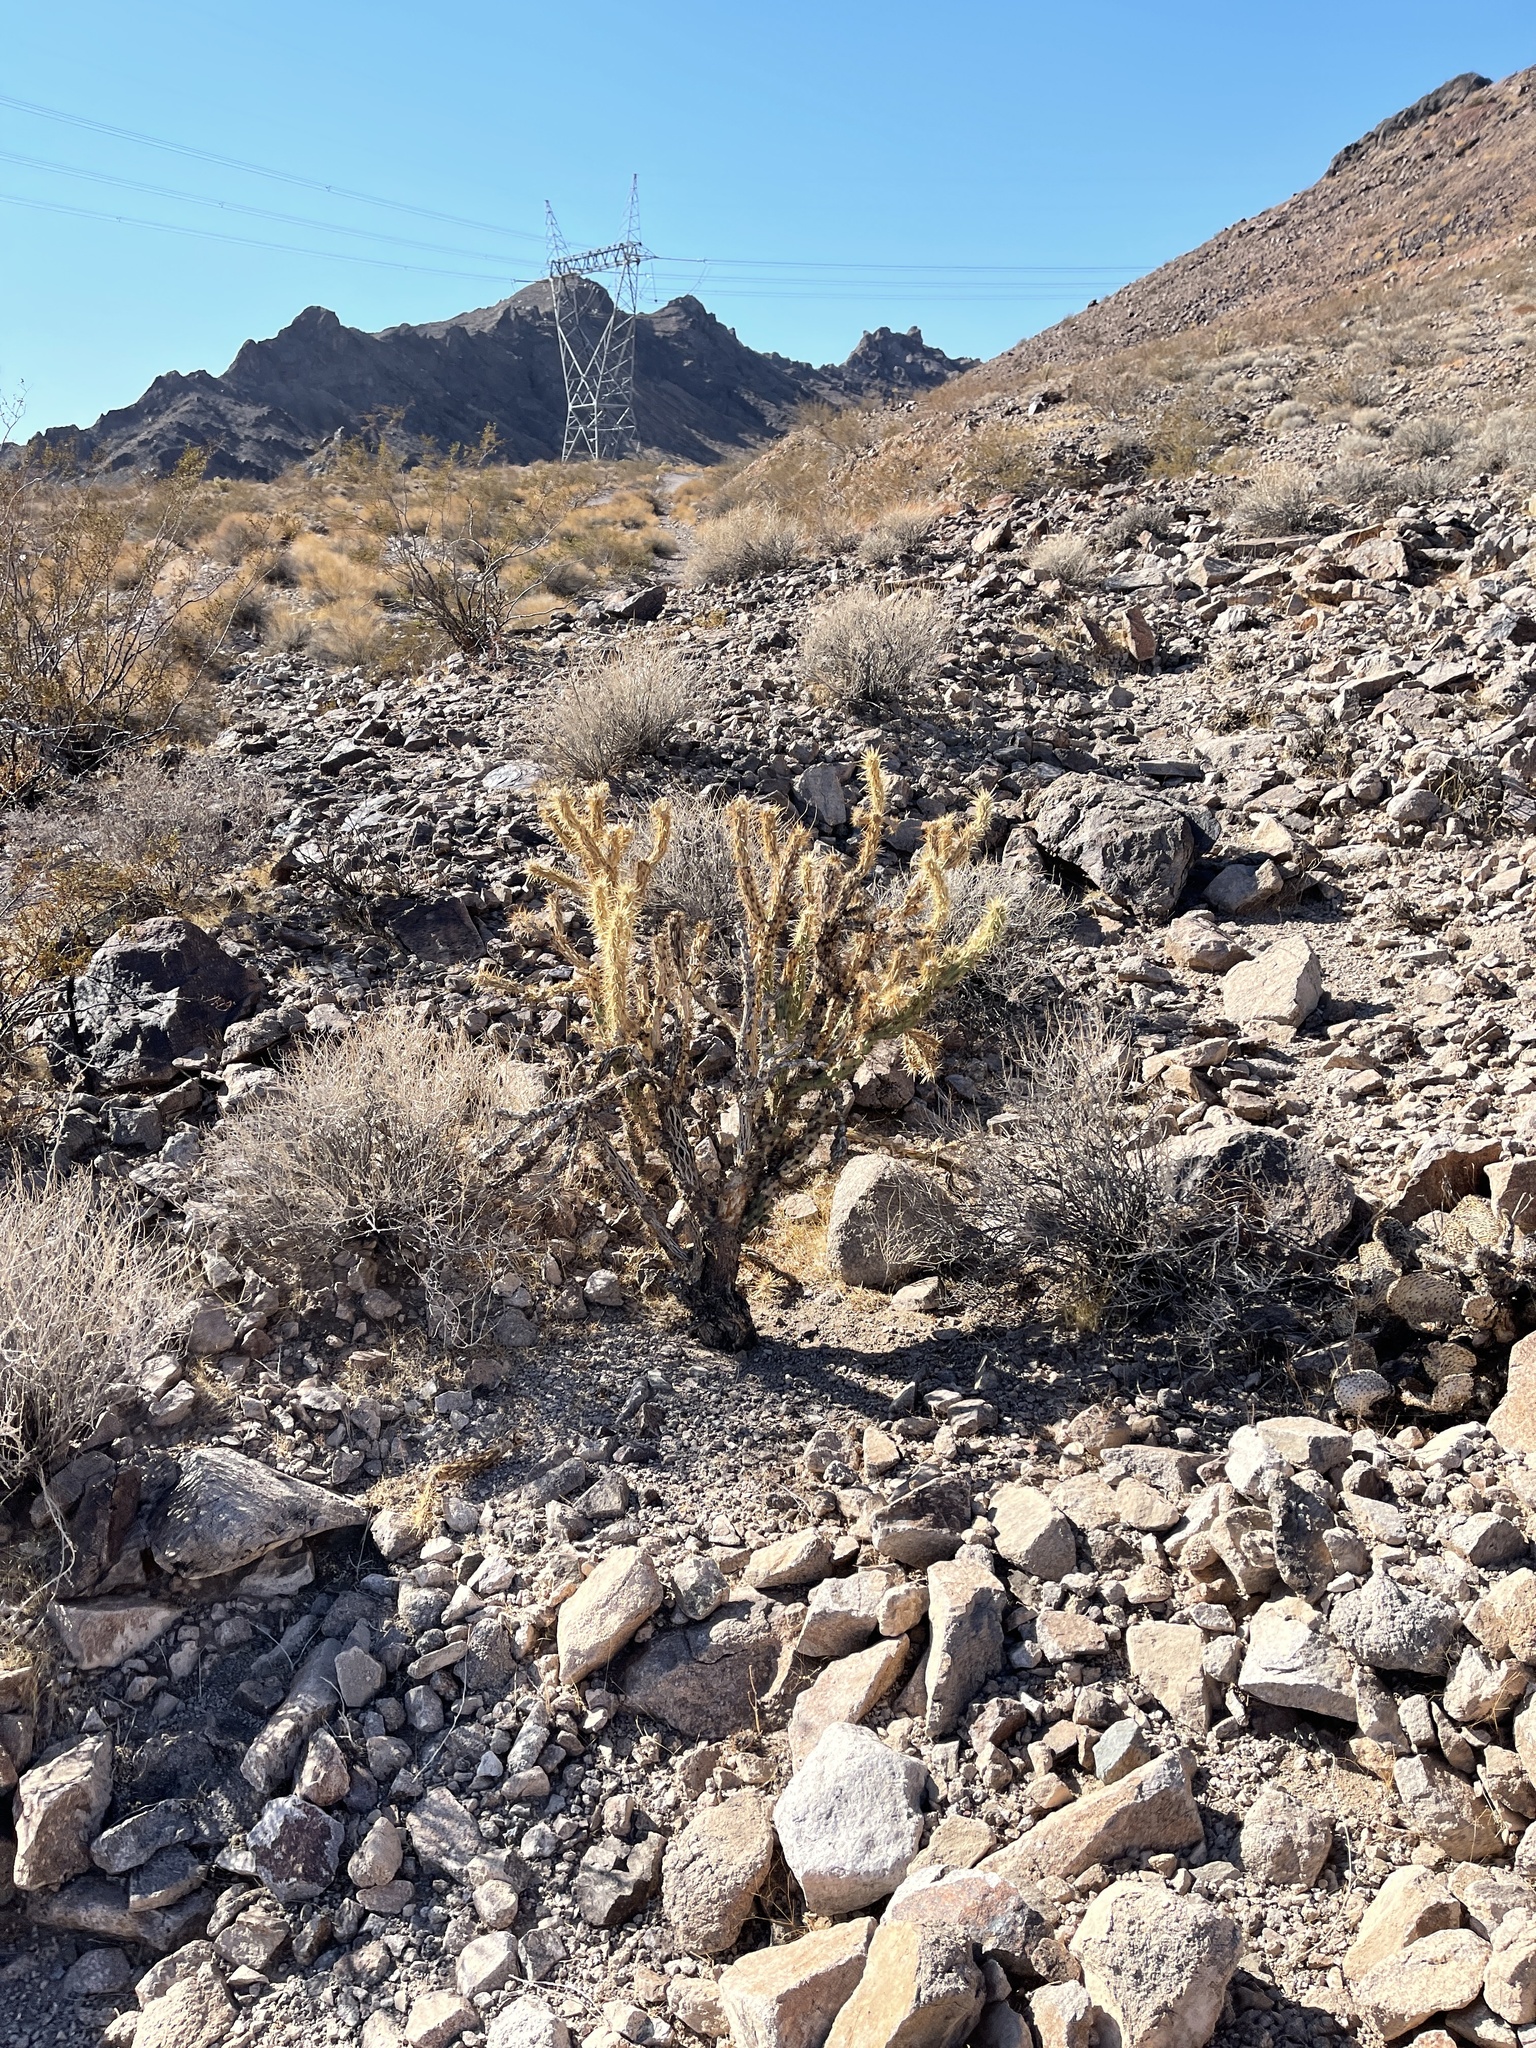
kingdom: Plantae
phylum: Tracheophyta
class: Magnoliopsida
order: Caryophyllales
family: Cactaceae
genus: Cylindropuntia
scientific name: Cylindropuntia acanthocarpa
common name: Buckhorn cholla
